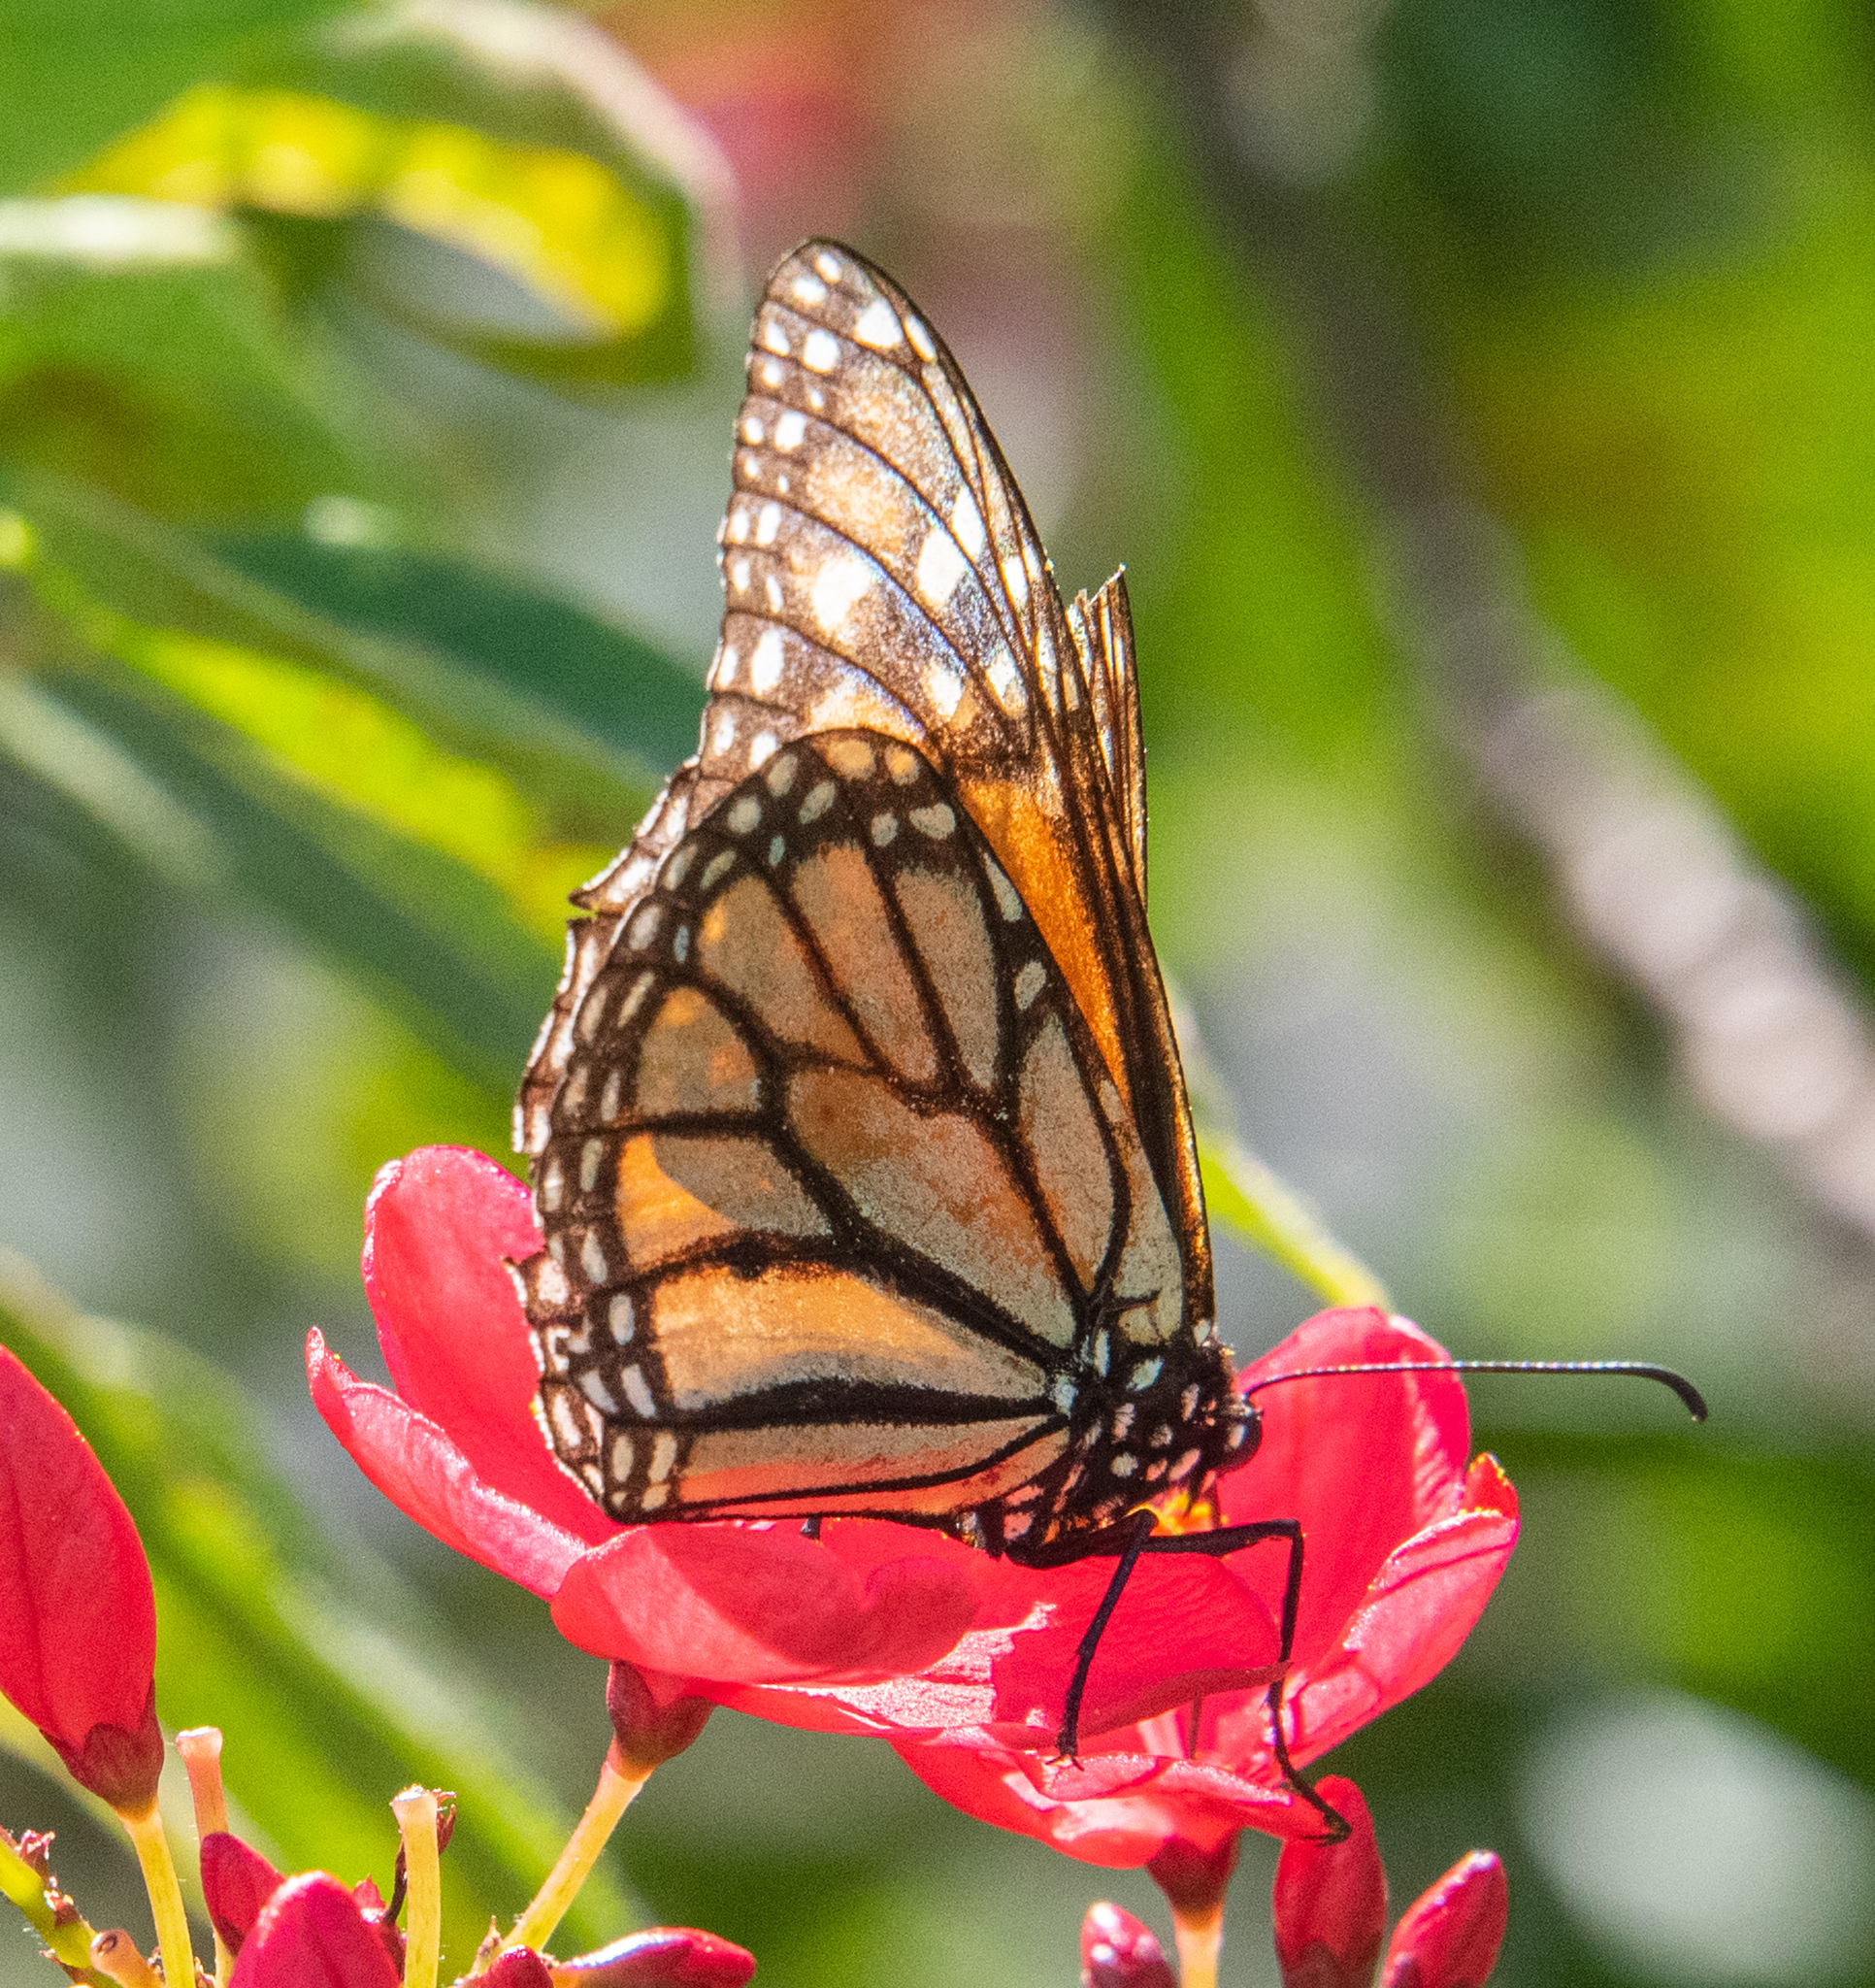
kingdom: Animalia
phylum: Arthropoda
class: Insecta
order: Lepidoptera
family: Nymphalidae
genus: Danaus
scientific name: Danaus plexippus
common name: Monarch
